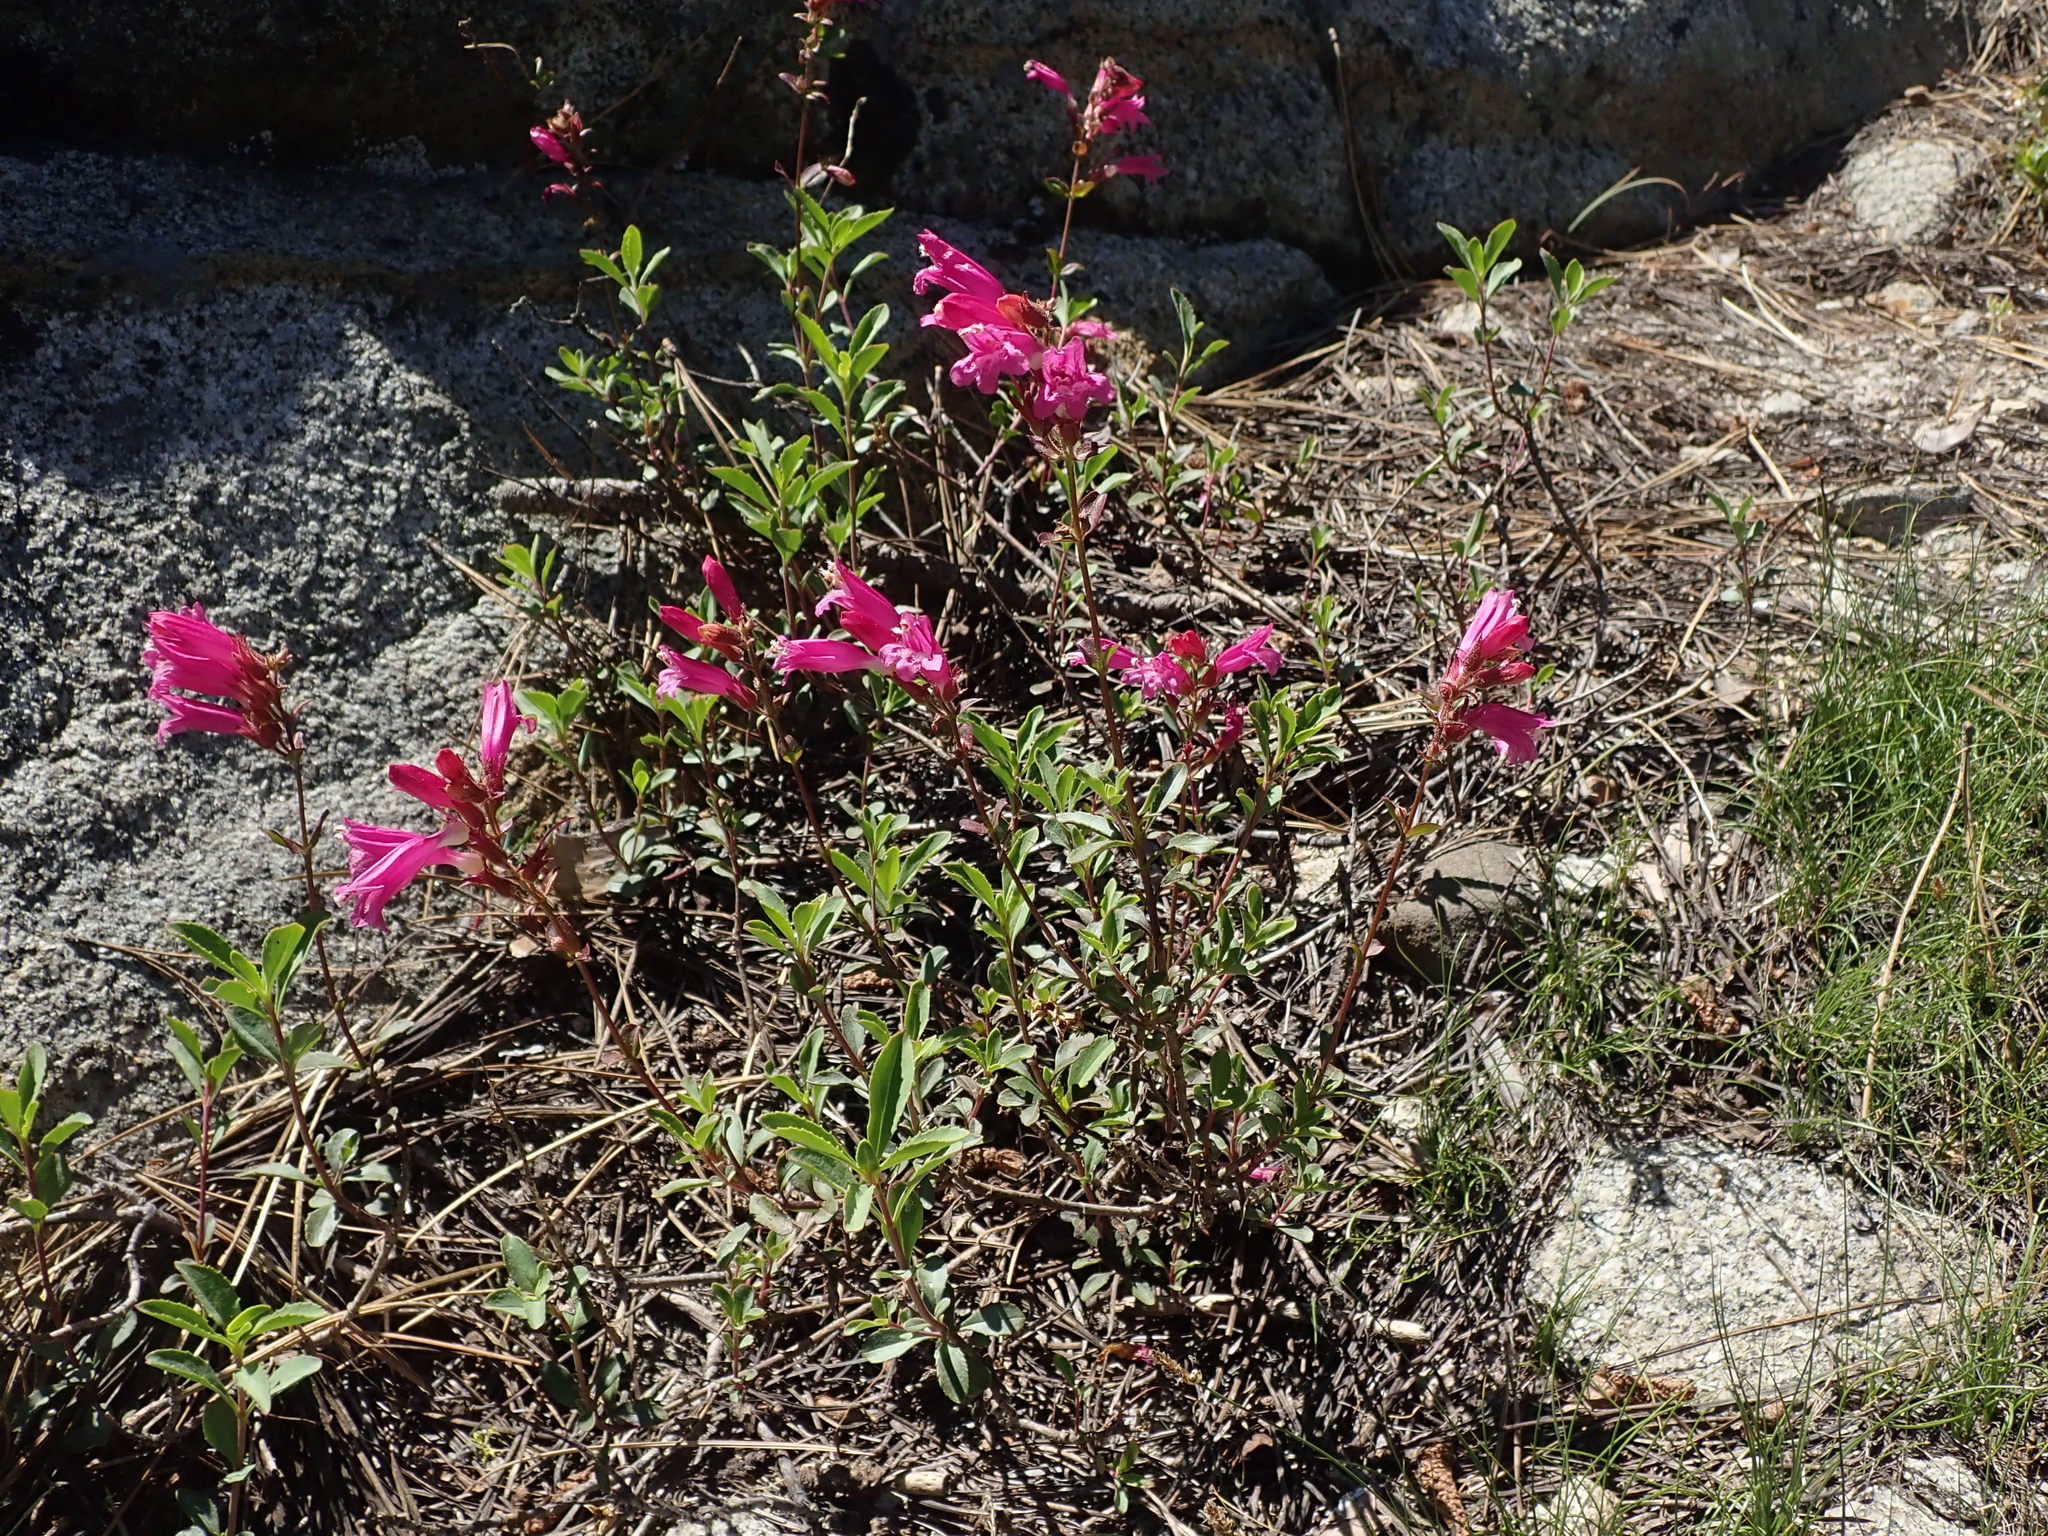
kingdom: Plantae
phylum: Tracheophyta
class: Magnoliopsida
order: Lamiales
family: Plantaginaceae
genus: Penstemon
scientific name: Penstemon newberryi
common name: Mountain-pride
